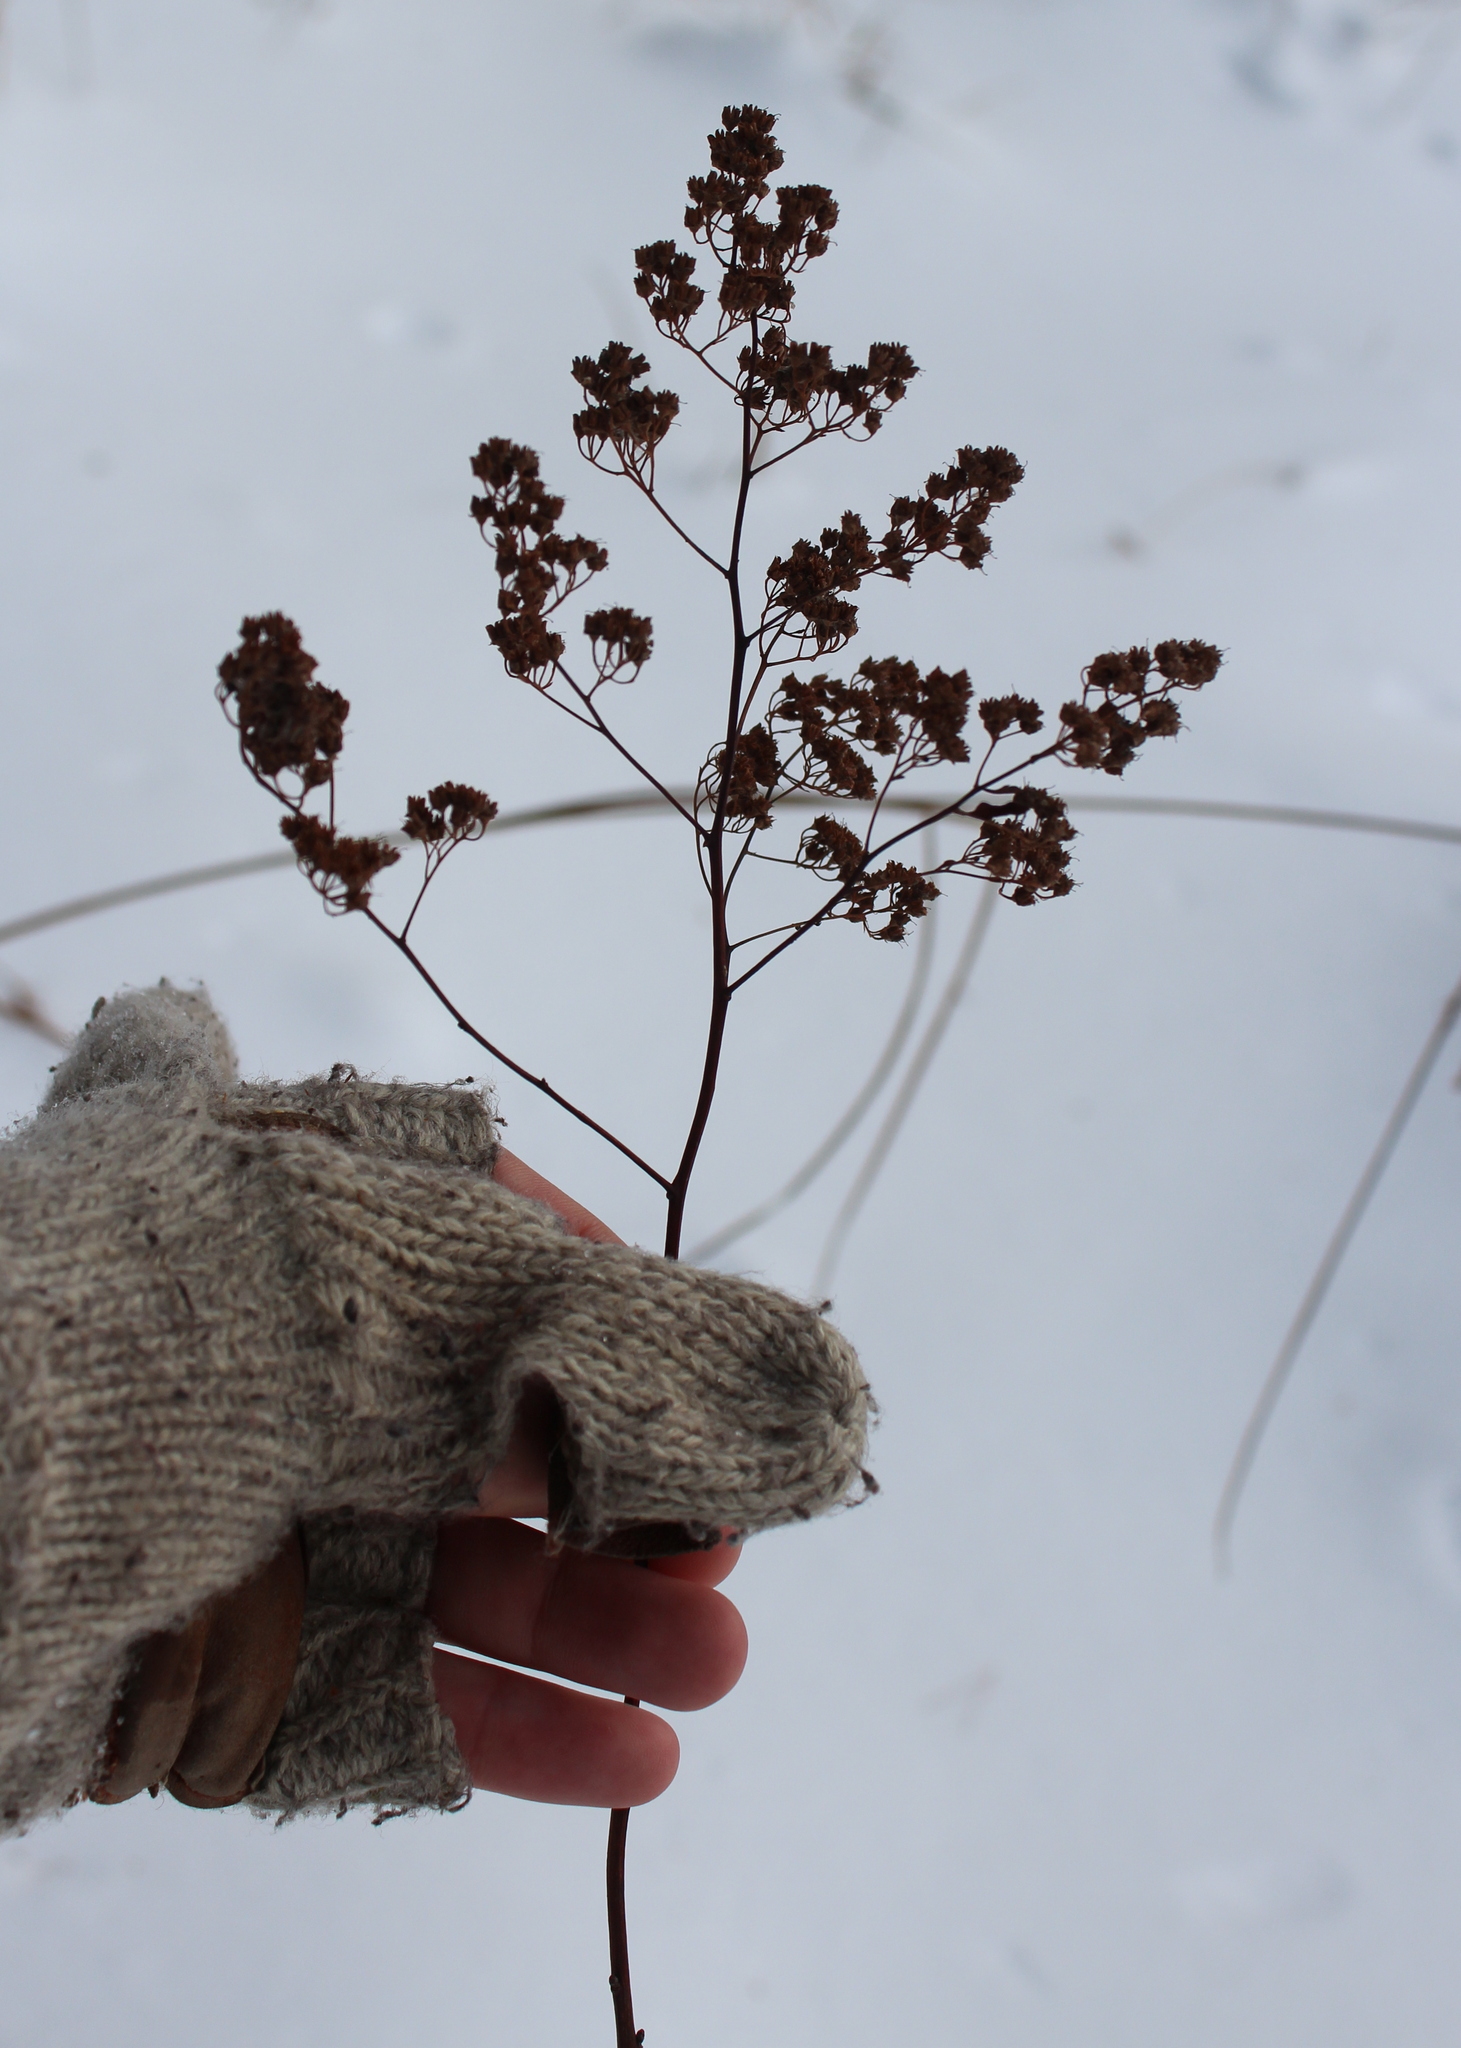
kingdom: Plantae
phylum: Tracheophyta
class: Magnoliopsida
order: Rosales
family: Rosaceae
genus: Spiraea
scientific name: Spiraea alba
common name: Pale bridewort
